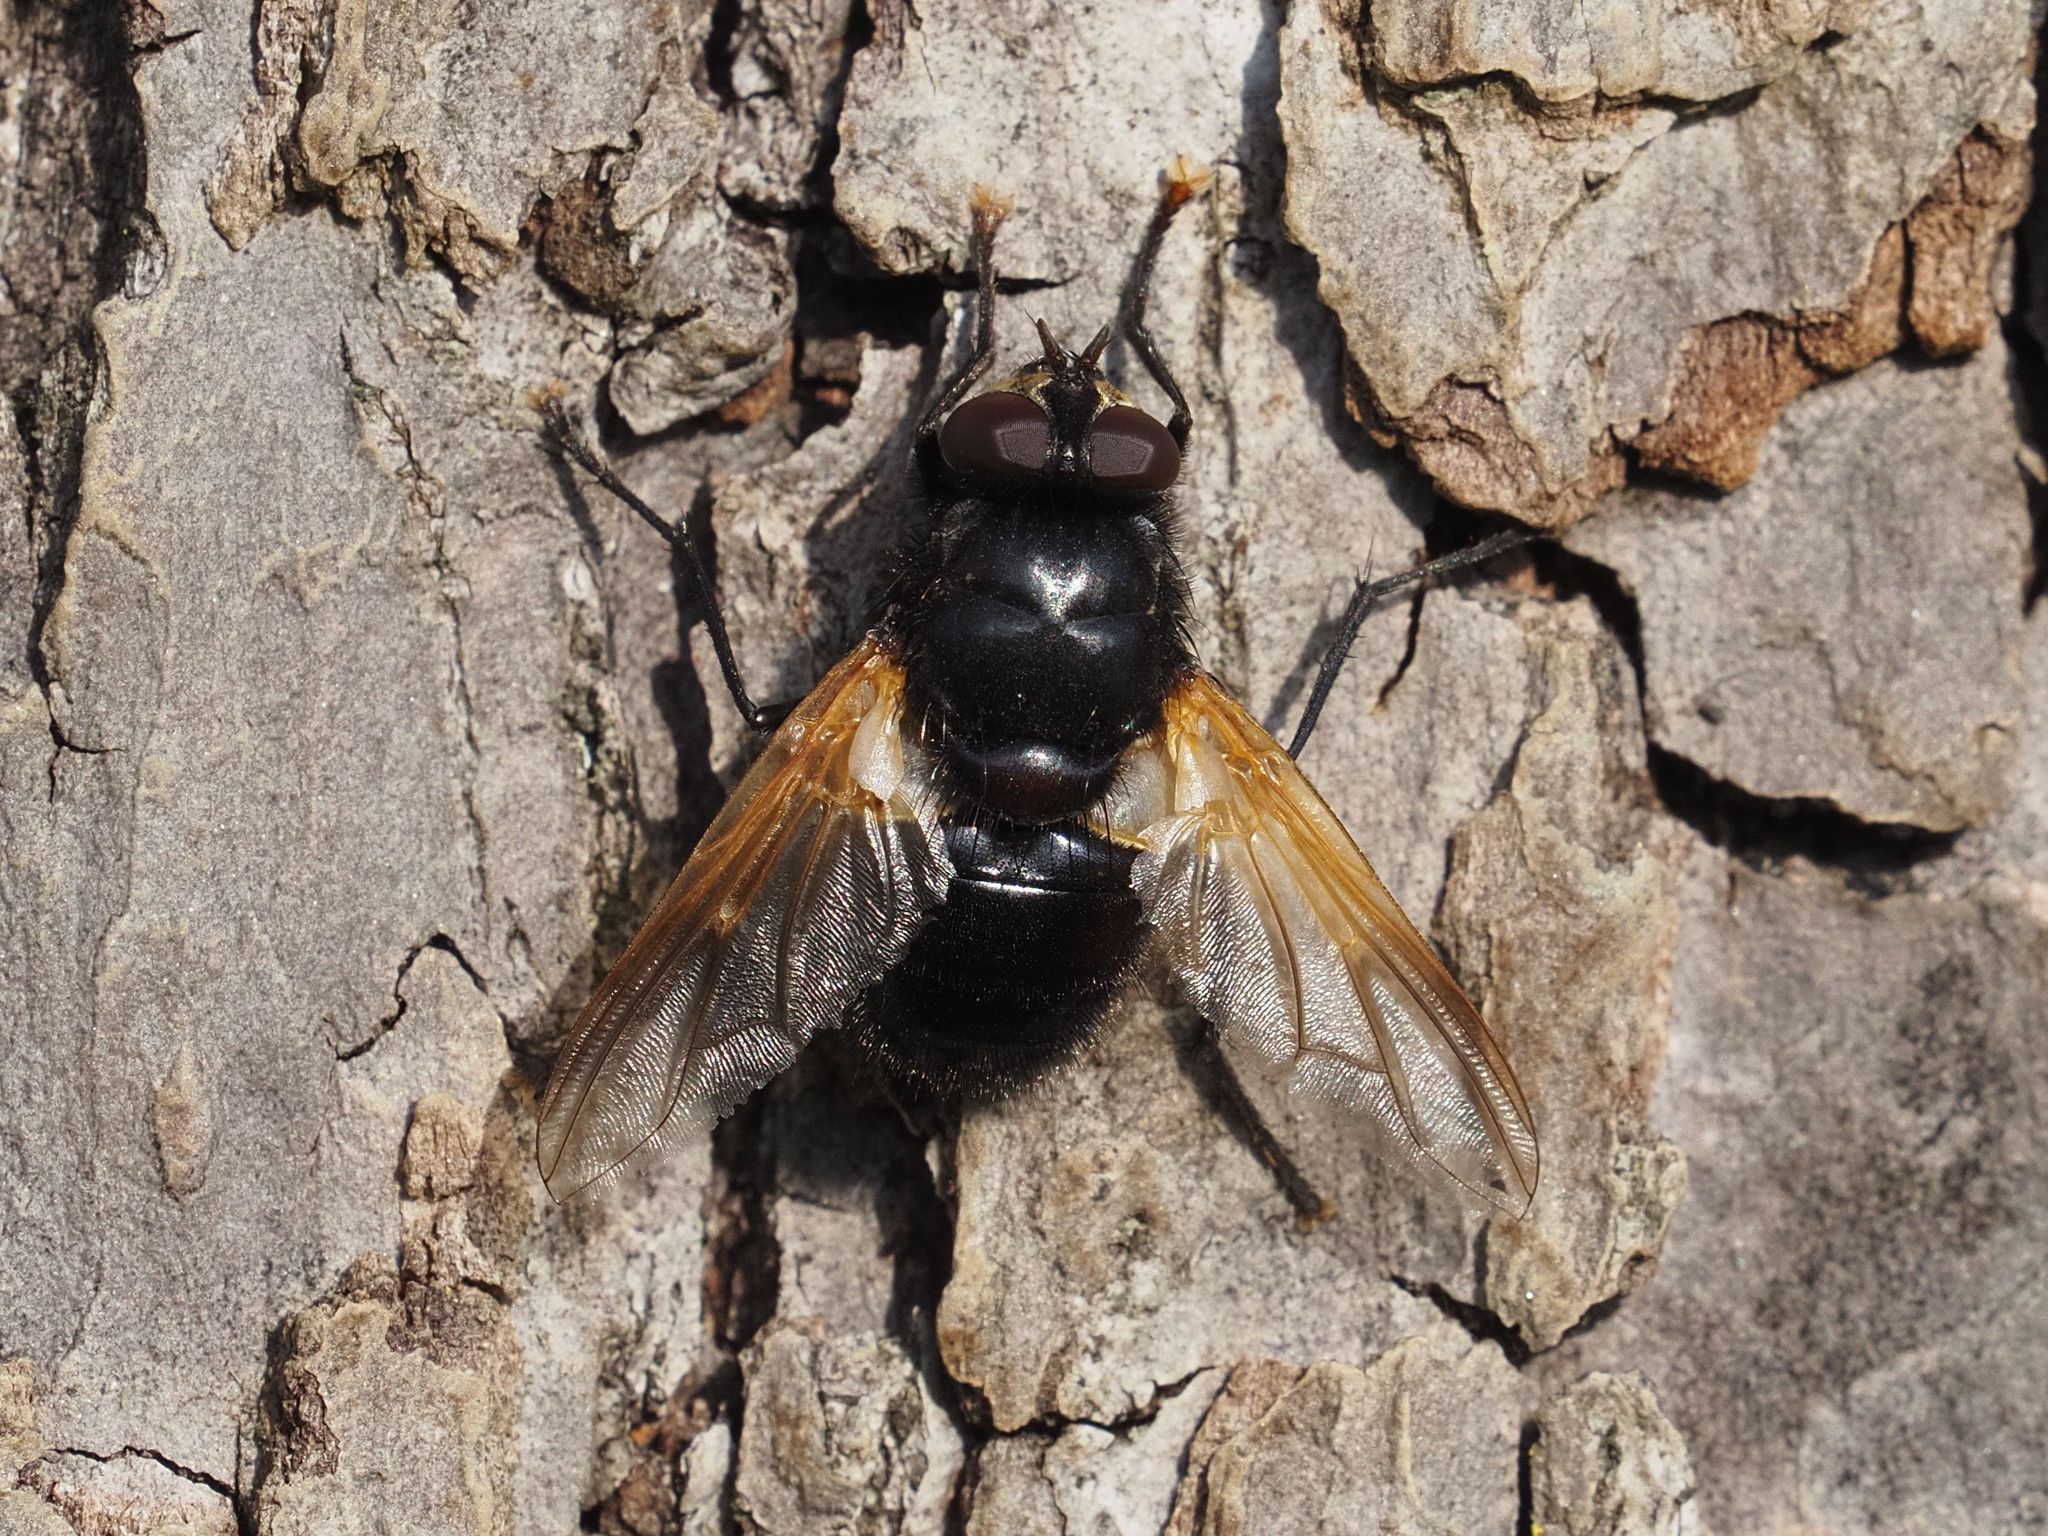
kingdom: Animalia
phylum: Arthropoda
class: Insecta
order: Diptera
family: Muscidae
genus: Mesembrina
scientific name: Mesembrina meridiana
